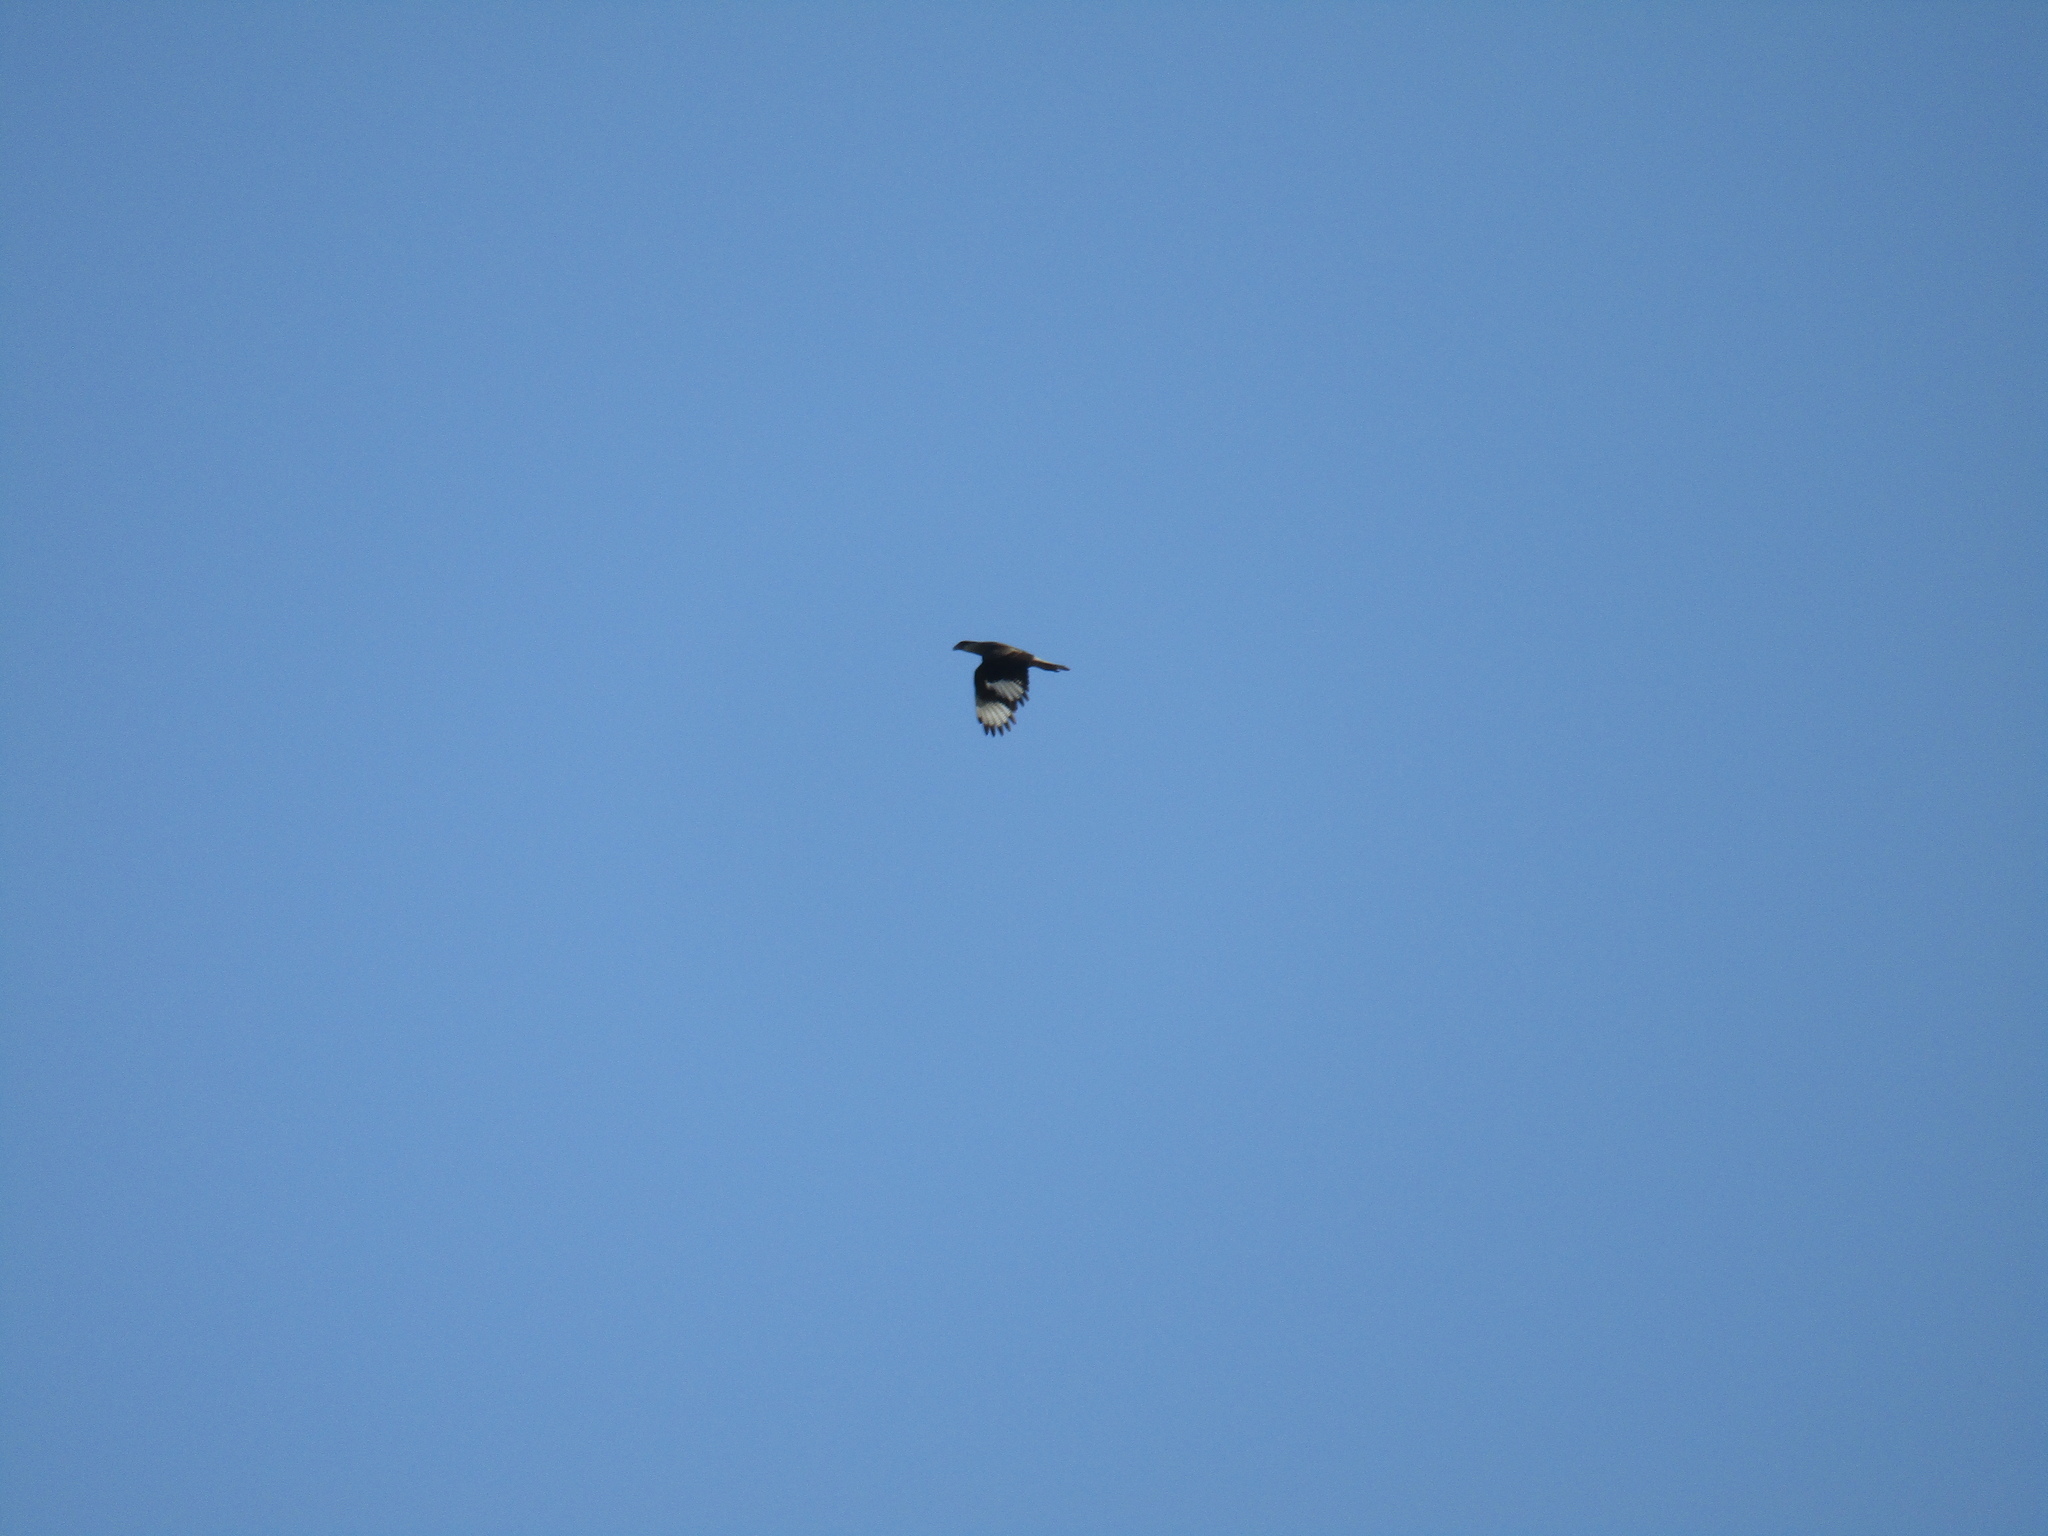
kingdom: Animalia
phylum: Chordata
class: Aves
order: Falconiformes
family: Falconidae
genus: Caracara
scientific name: Caracara plancus
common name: Southern caracara
